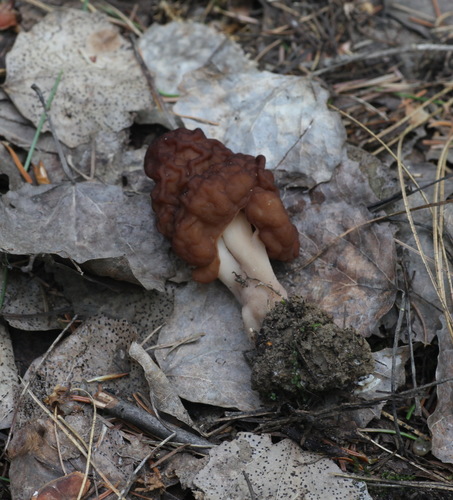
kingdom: Fungi
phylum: Ascomycota
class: Pezizomycetes
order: Pezizales
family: Discinaceae
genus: Gyromitra
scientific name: Gyromitra esculenta
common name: False morel
